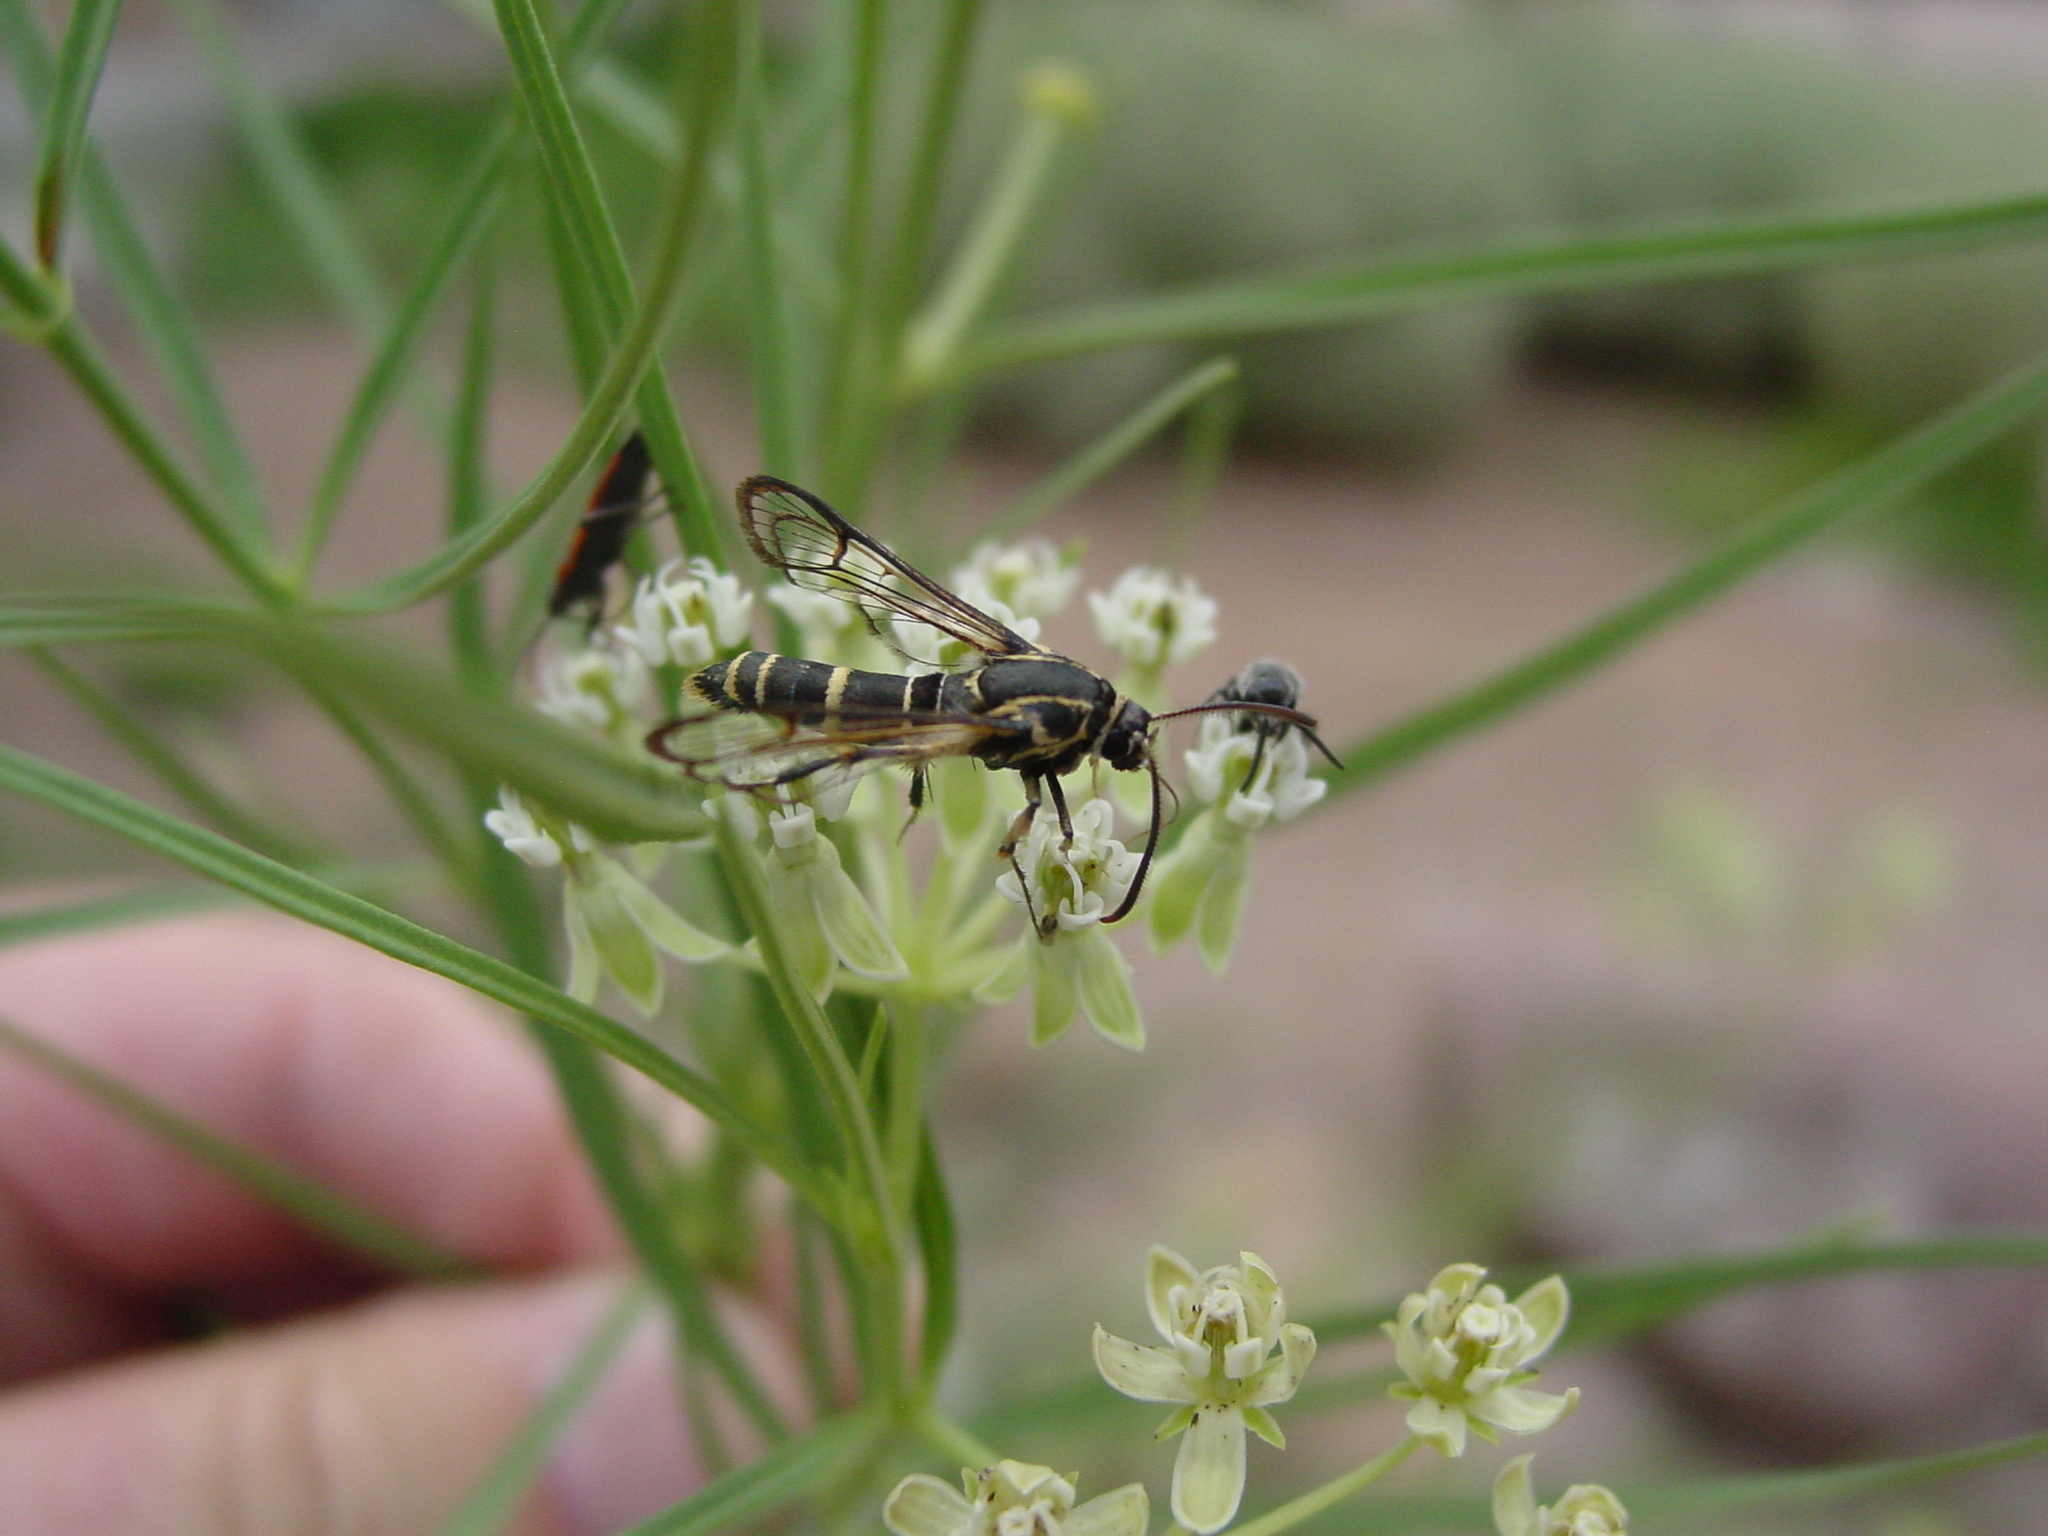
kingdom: Animalia
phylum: Arthropoda
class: Insecta
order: Lepidoptera
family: Sesiidae
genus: Carmenta
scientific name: Carmenta wellerae
